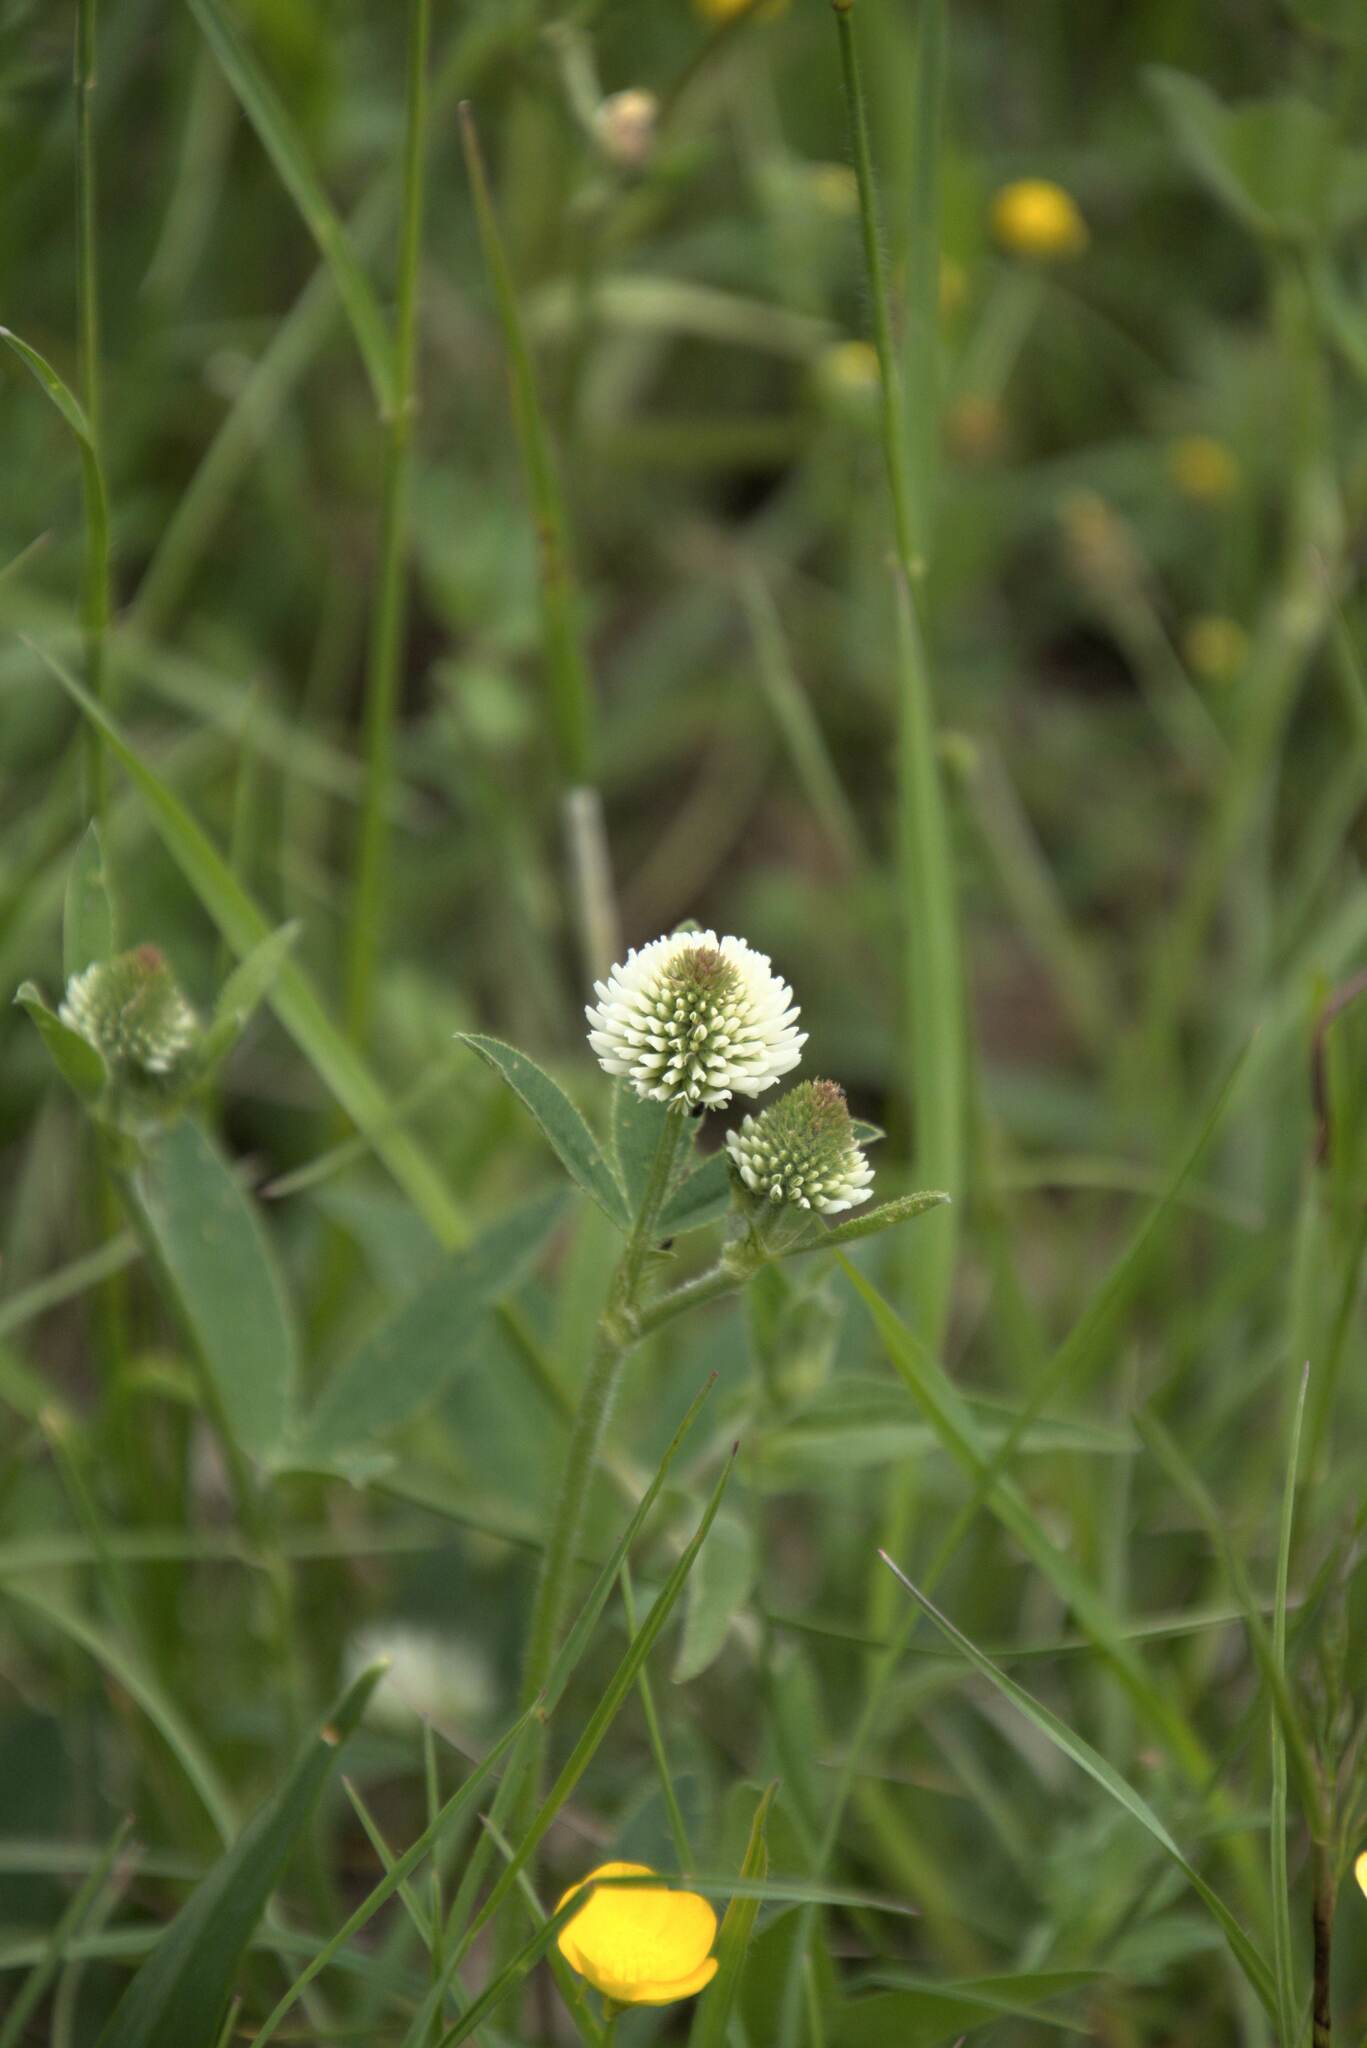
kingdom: Plantae
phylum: Tracheophyta
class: Magnoliopsida
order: Fabales
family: Fabaceae
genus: Trifolium
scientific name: Trifolium montanum
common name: Mountain clover
